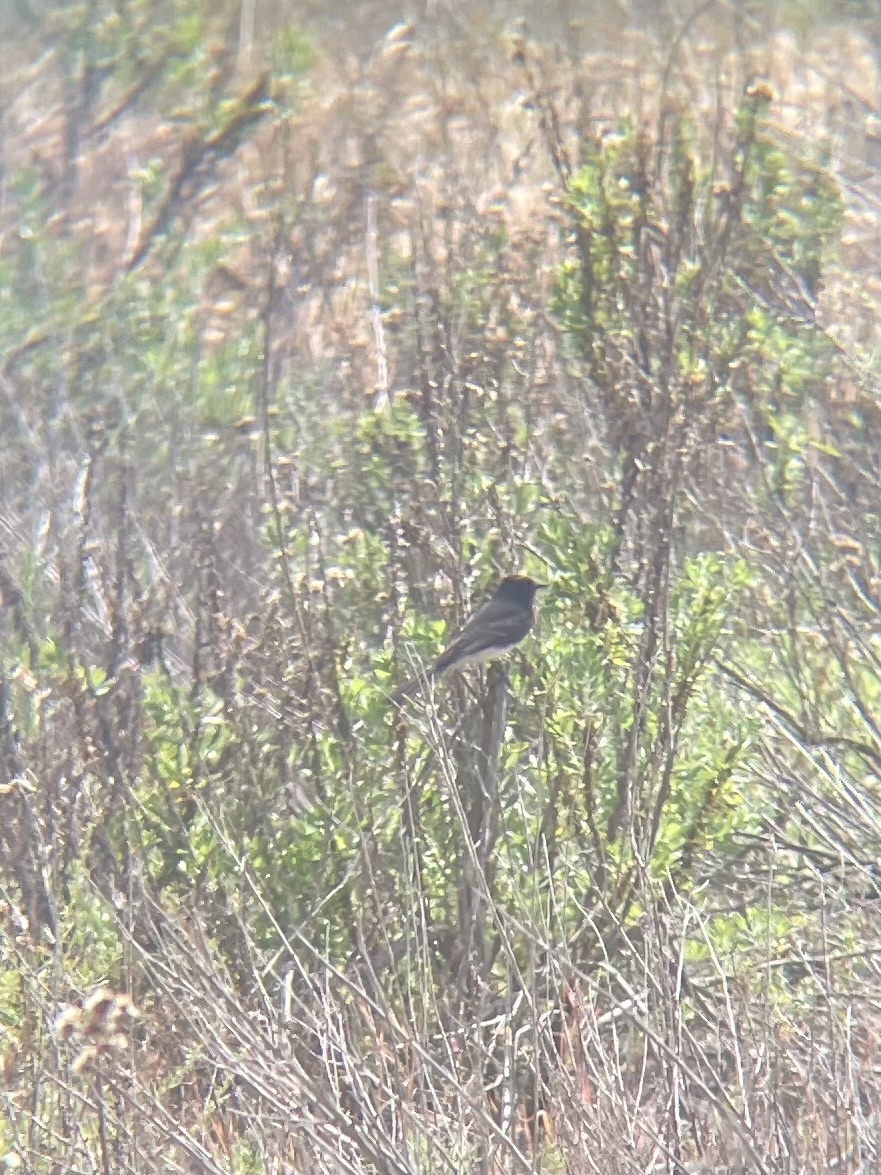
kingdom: Animalia
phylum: Chordata
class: Aves
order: Passeriformes
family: Tyrannidae
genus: Sayornis
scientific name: Sayornis nigricans
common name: Black phoebe
